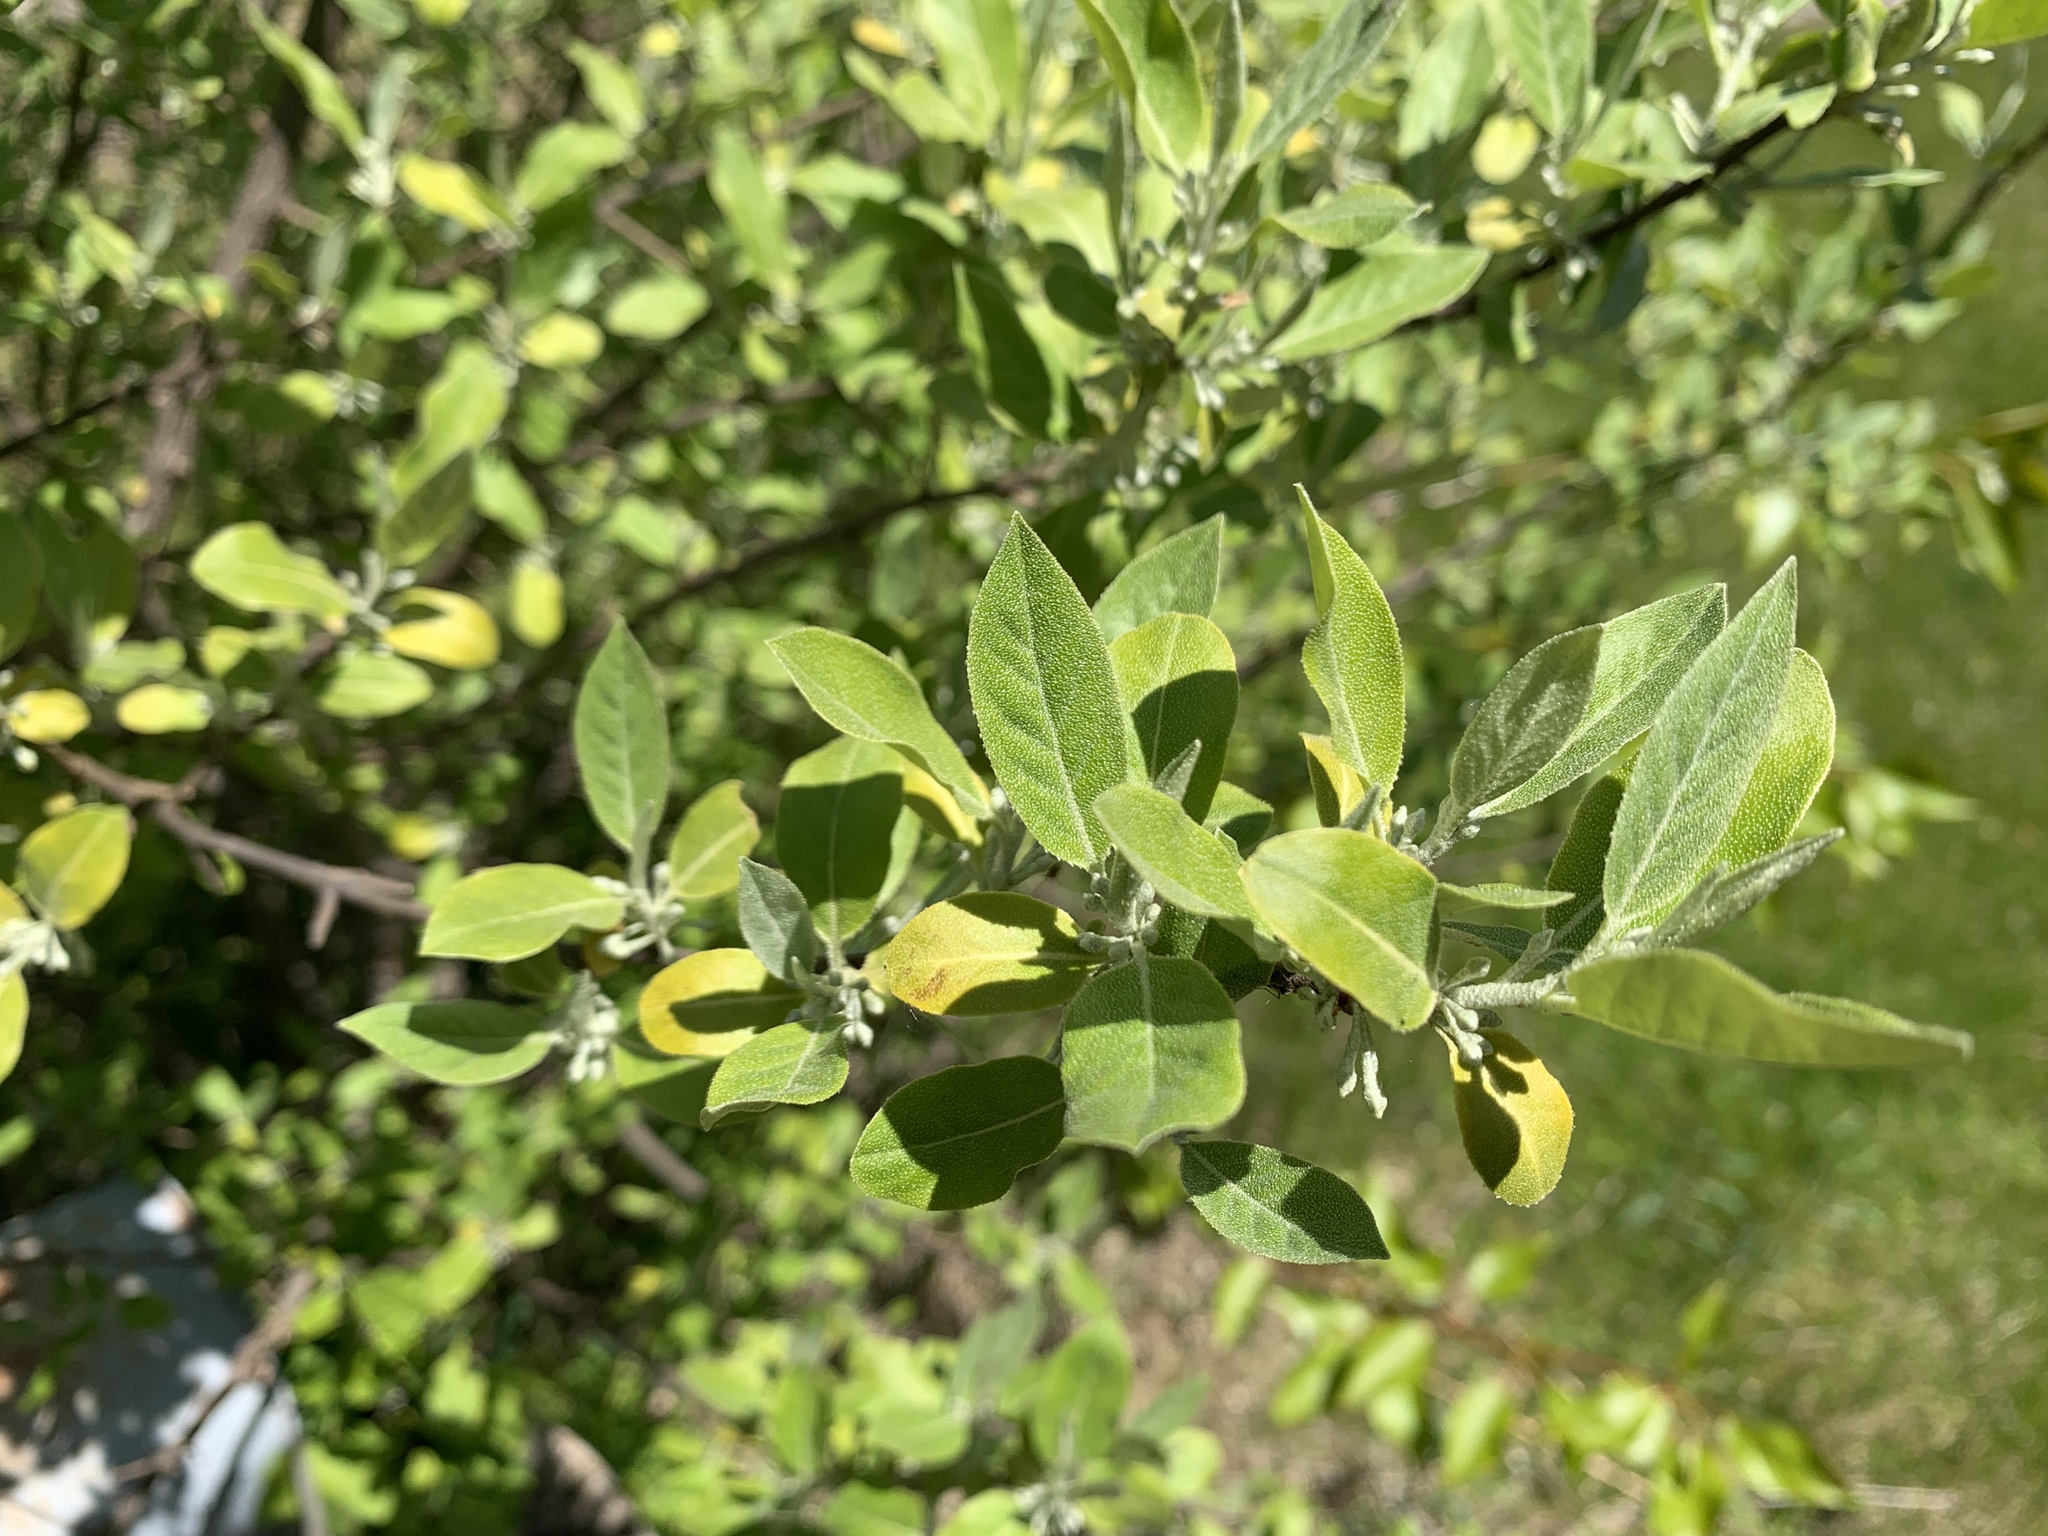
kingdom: Plantae
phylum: Tracheophyta
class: Magnoliopsida
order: Rosales
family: Elaeagnaceae
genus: Elaeagnus
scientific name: Elaeagnus umbellata
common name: Autumn olive
